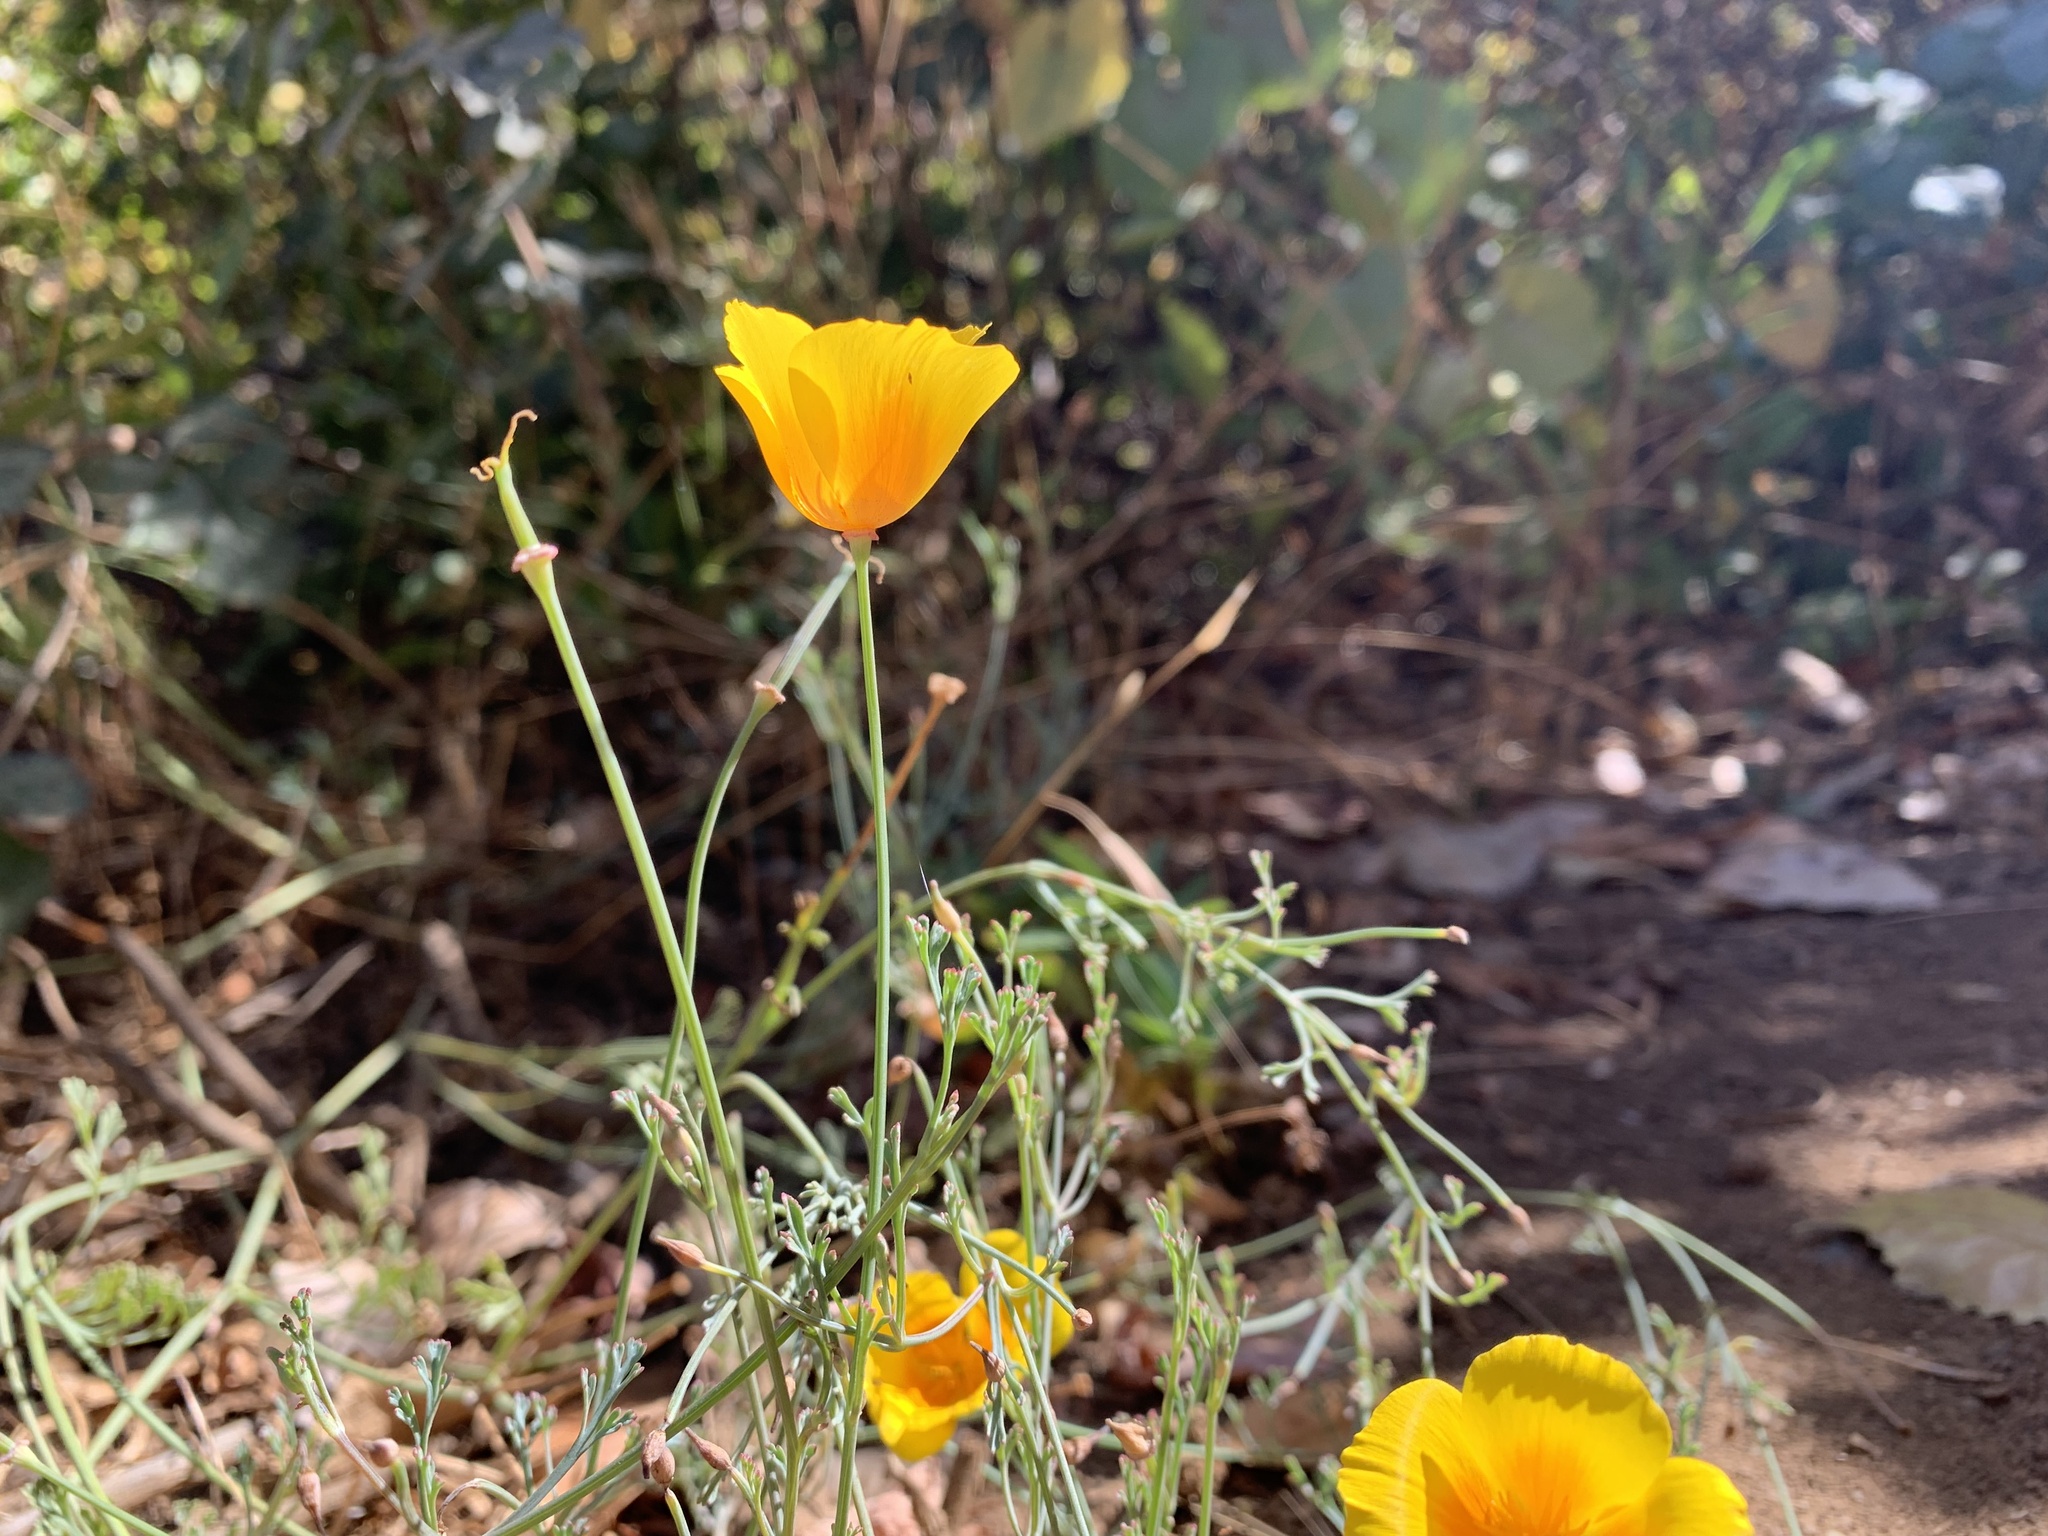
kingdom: Plantae
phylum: Tracheophyta
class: Magnoliopsida
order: Ranunculales
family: Papaveraceae
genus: Eschscholzia
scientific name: Eschscholzia californica
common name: California poppy
